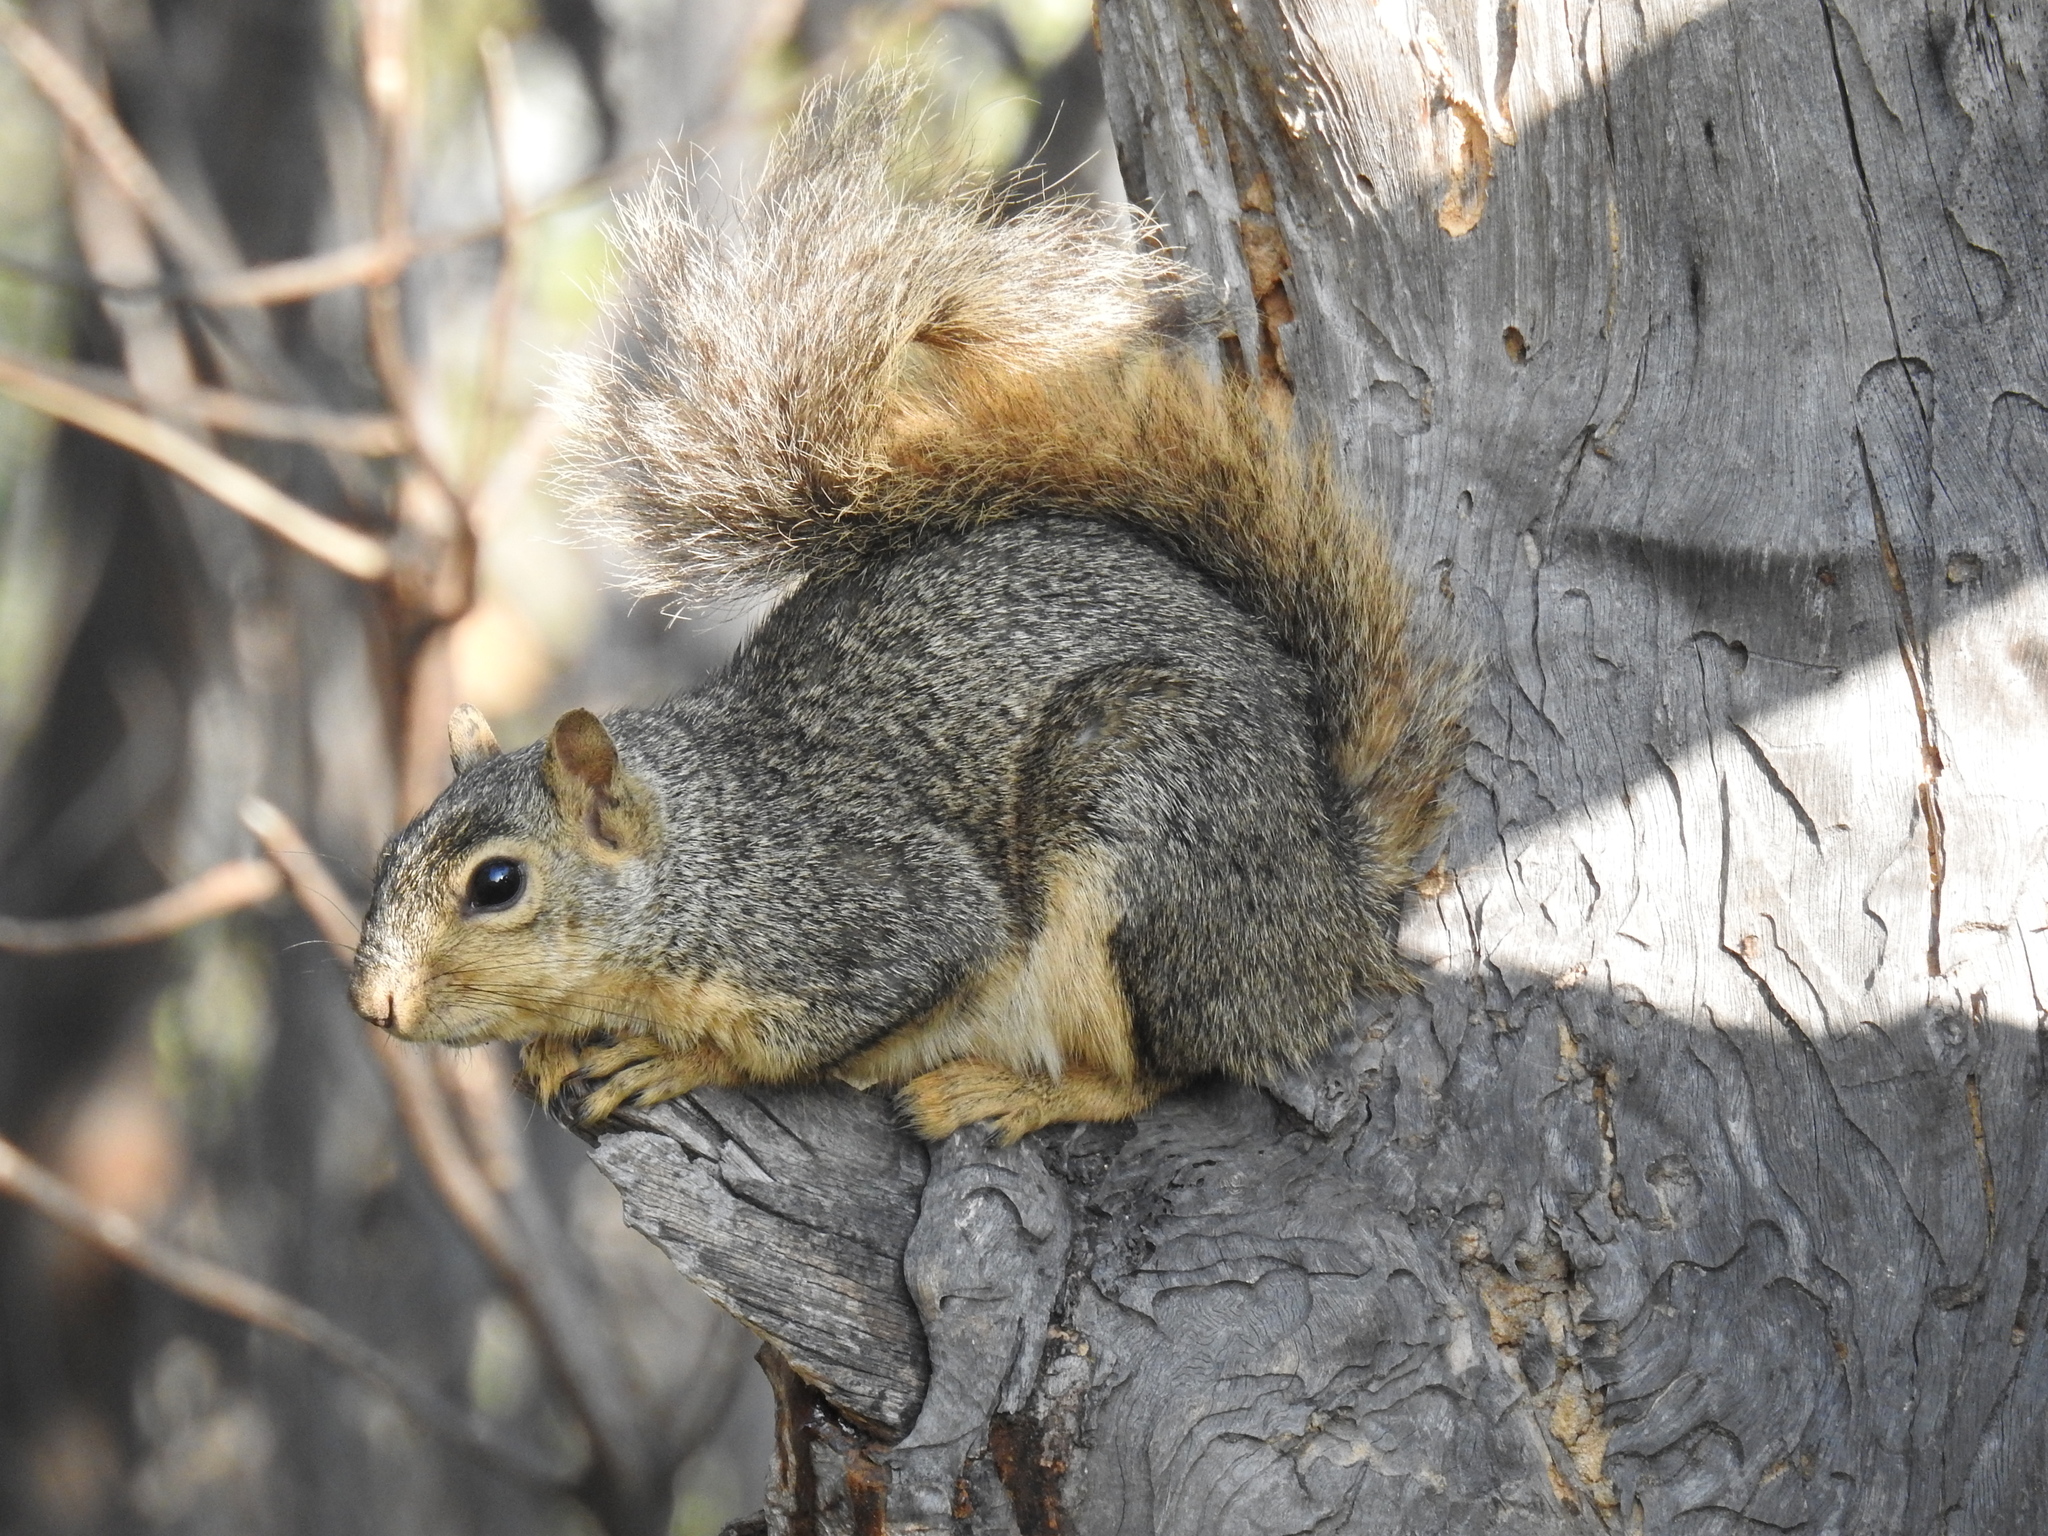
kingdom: Animalia
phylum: Chordata
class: Mammalia
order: Rodentia
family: Sciuridae
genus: Sciurus
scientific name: Sciurus niger
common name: Fox squirrel
